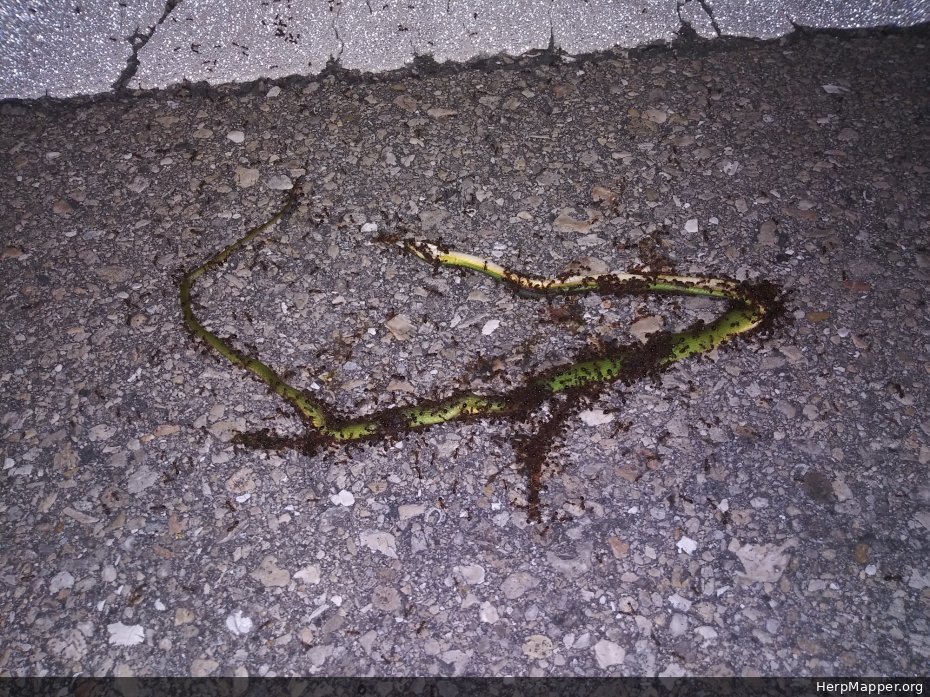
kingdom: Animalia
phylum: Chordata
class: Squamata
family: Colubridae
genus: Opheodrys
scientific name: Opheodrys aestivus
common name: Rough greensnake
